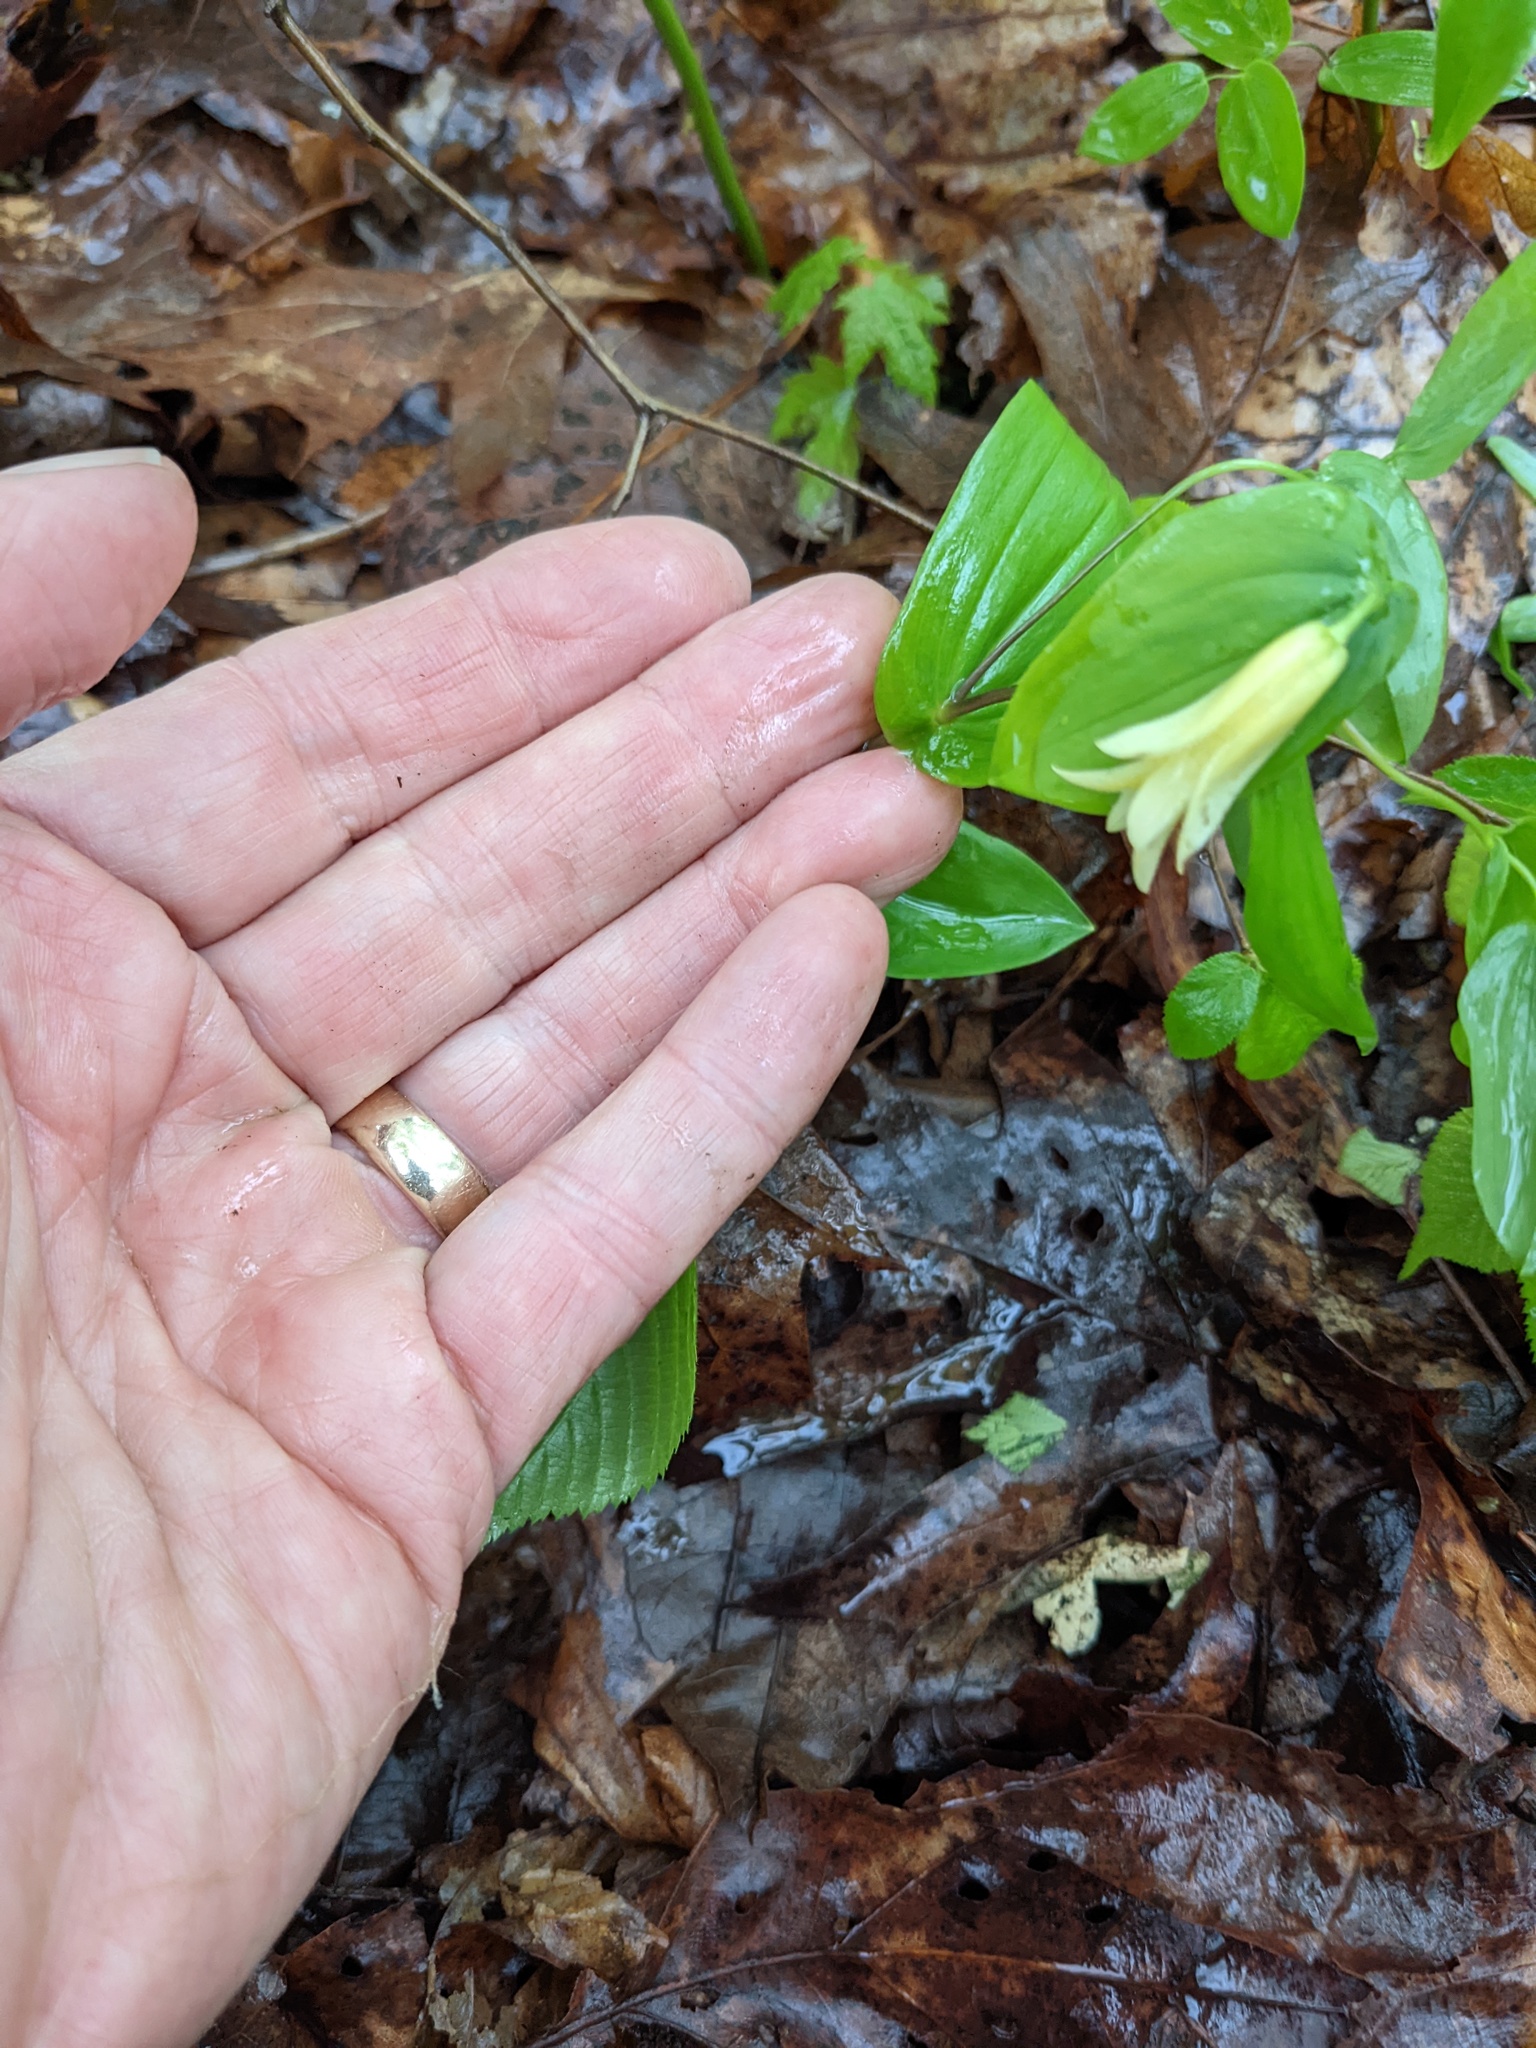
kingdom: Plantae
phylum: Tracheophyta
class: Liliopsida
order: Liliales
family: Colchicaceae
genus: Uvularia
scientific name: Uvularia perfoliata
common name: Perfoliate bellwort
